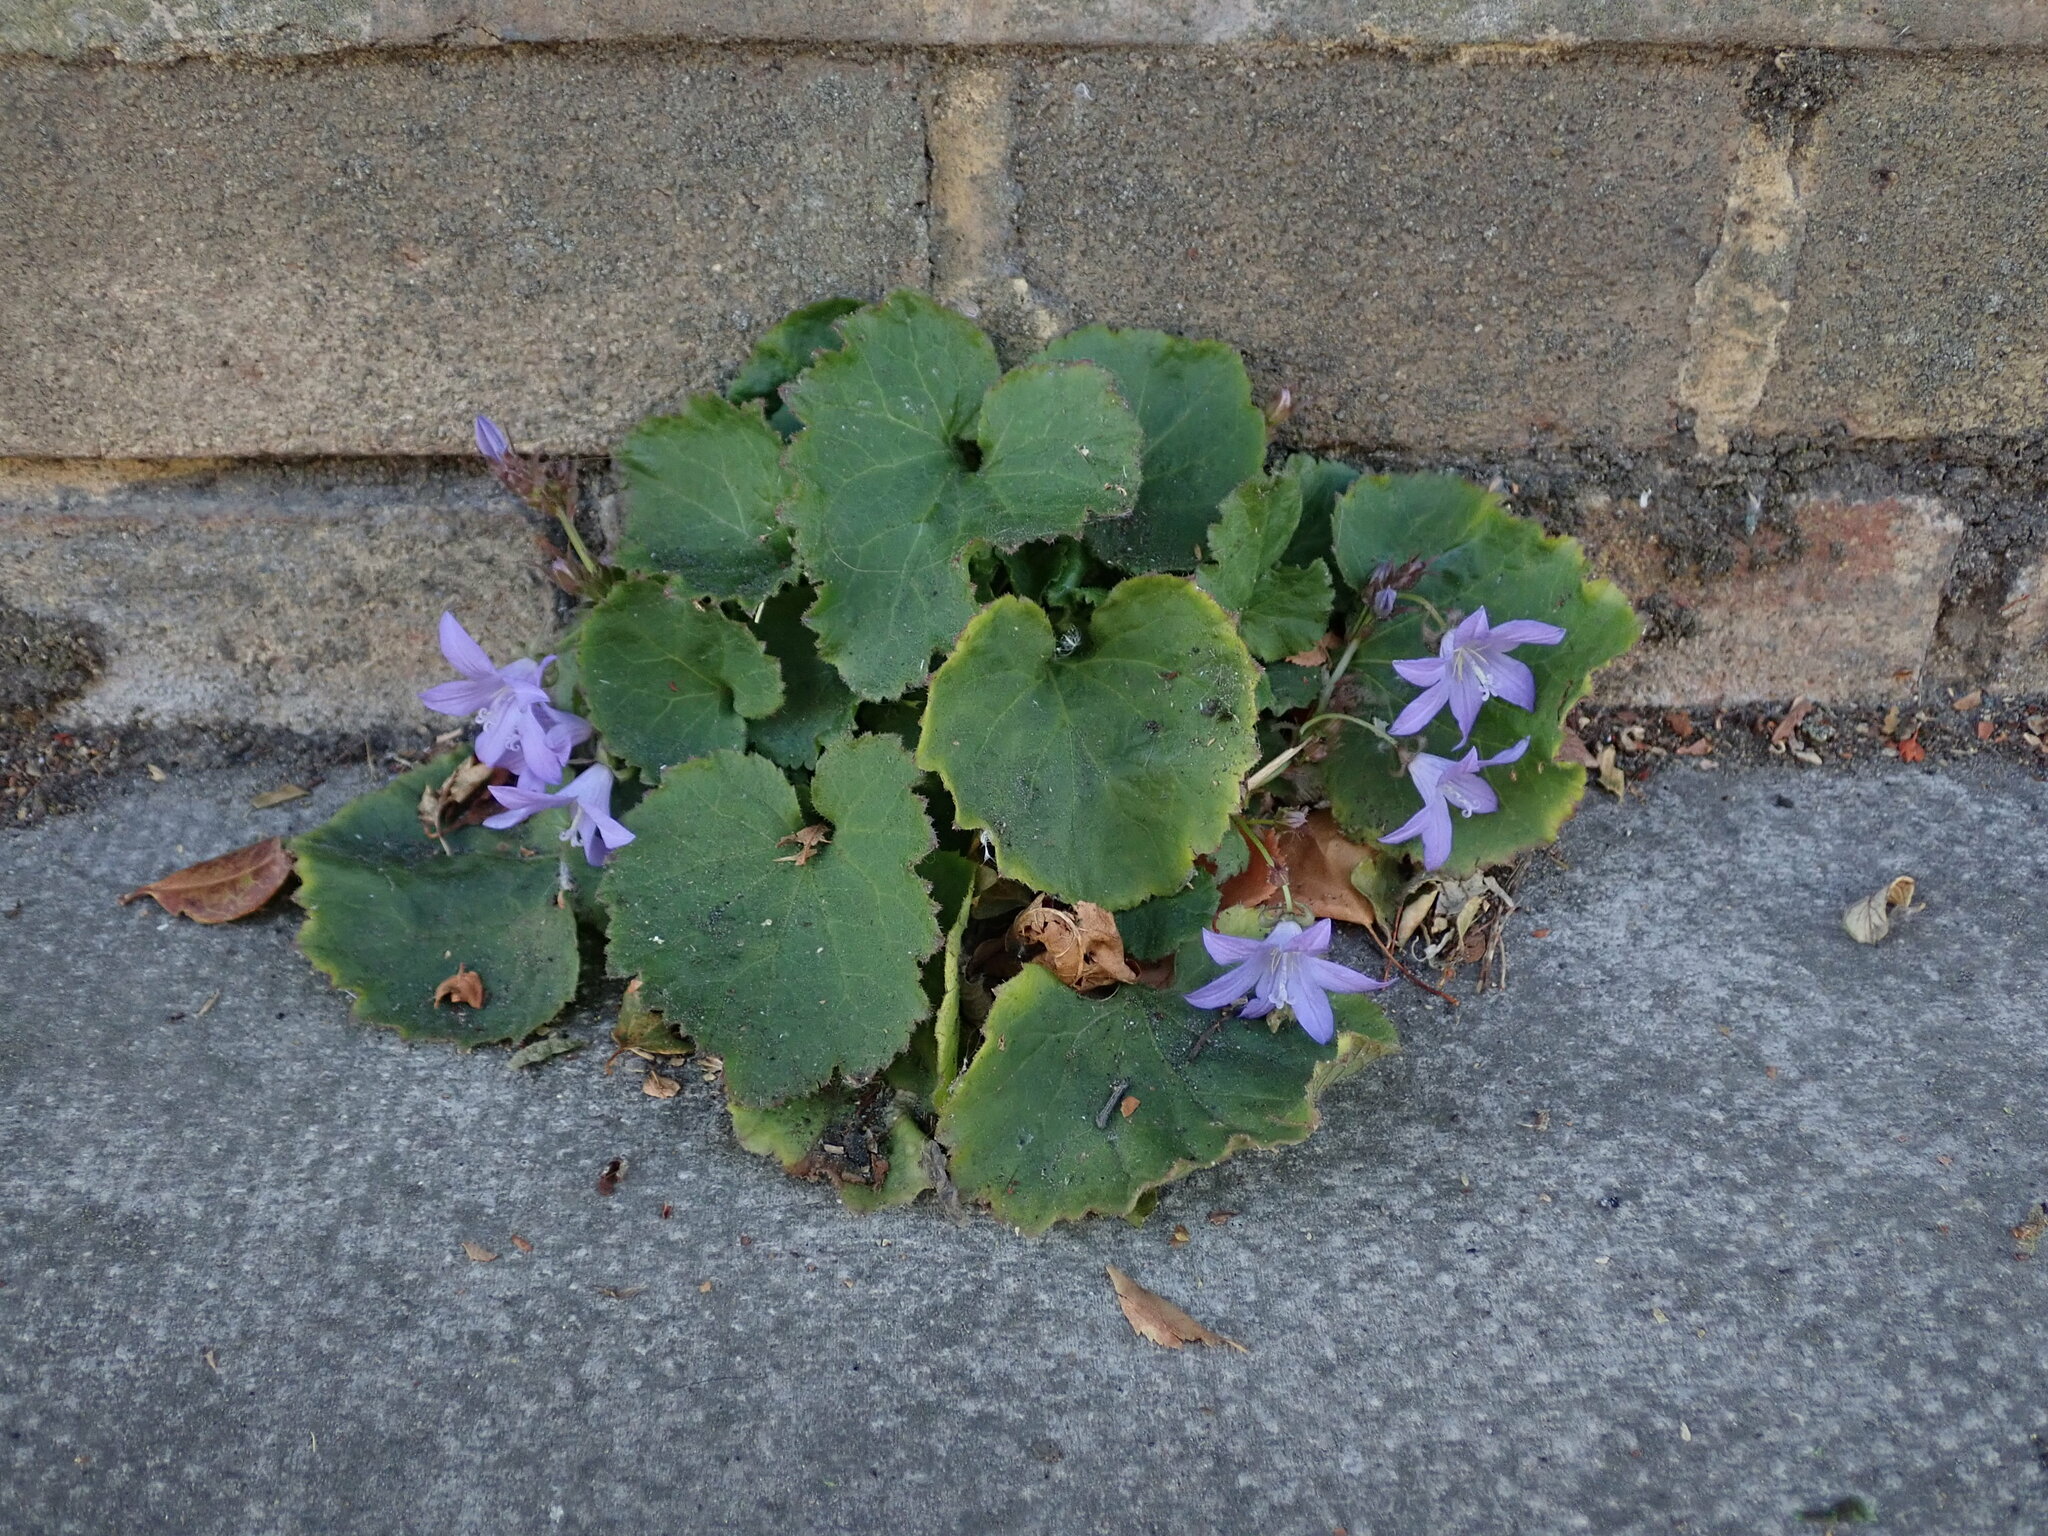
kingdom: Plantae
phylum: Tracheophyta
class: Magnoliopsida
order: Asterales
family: Campanulaceae
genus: Campanula
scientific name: Campanula poscharskyana
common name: Trailing bellflower
